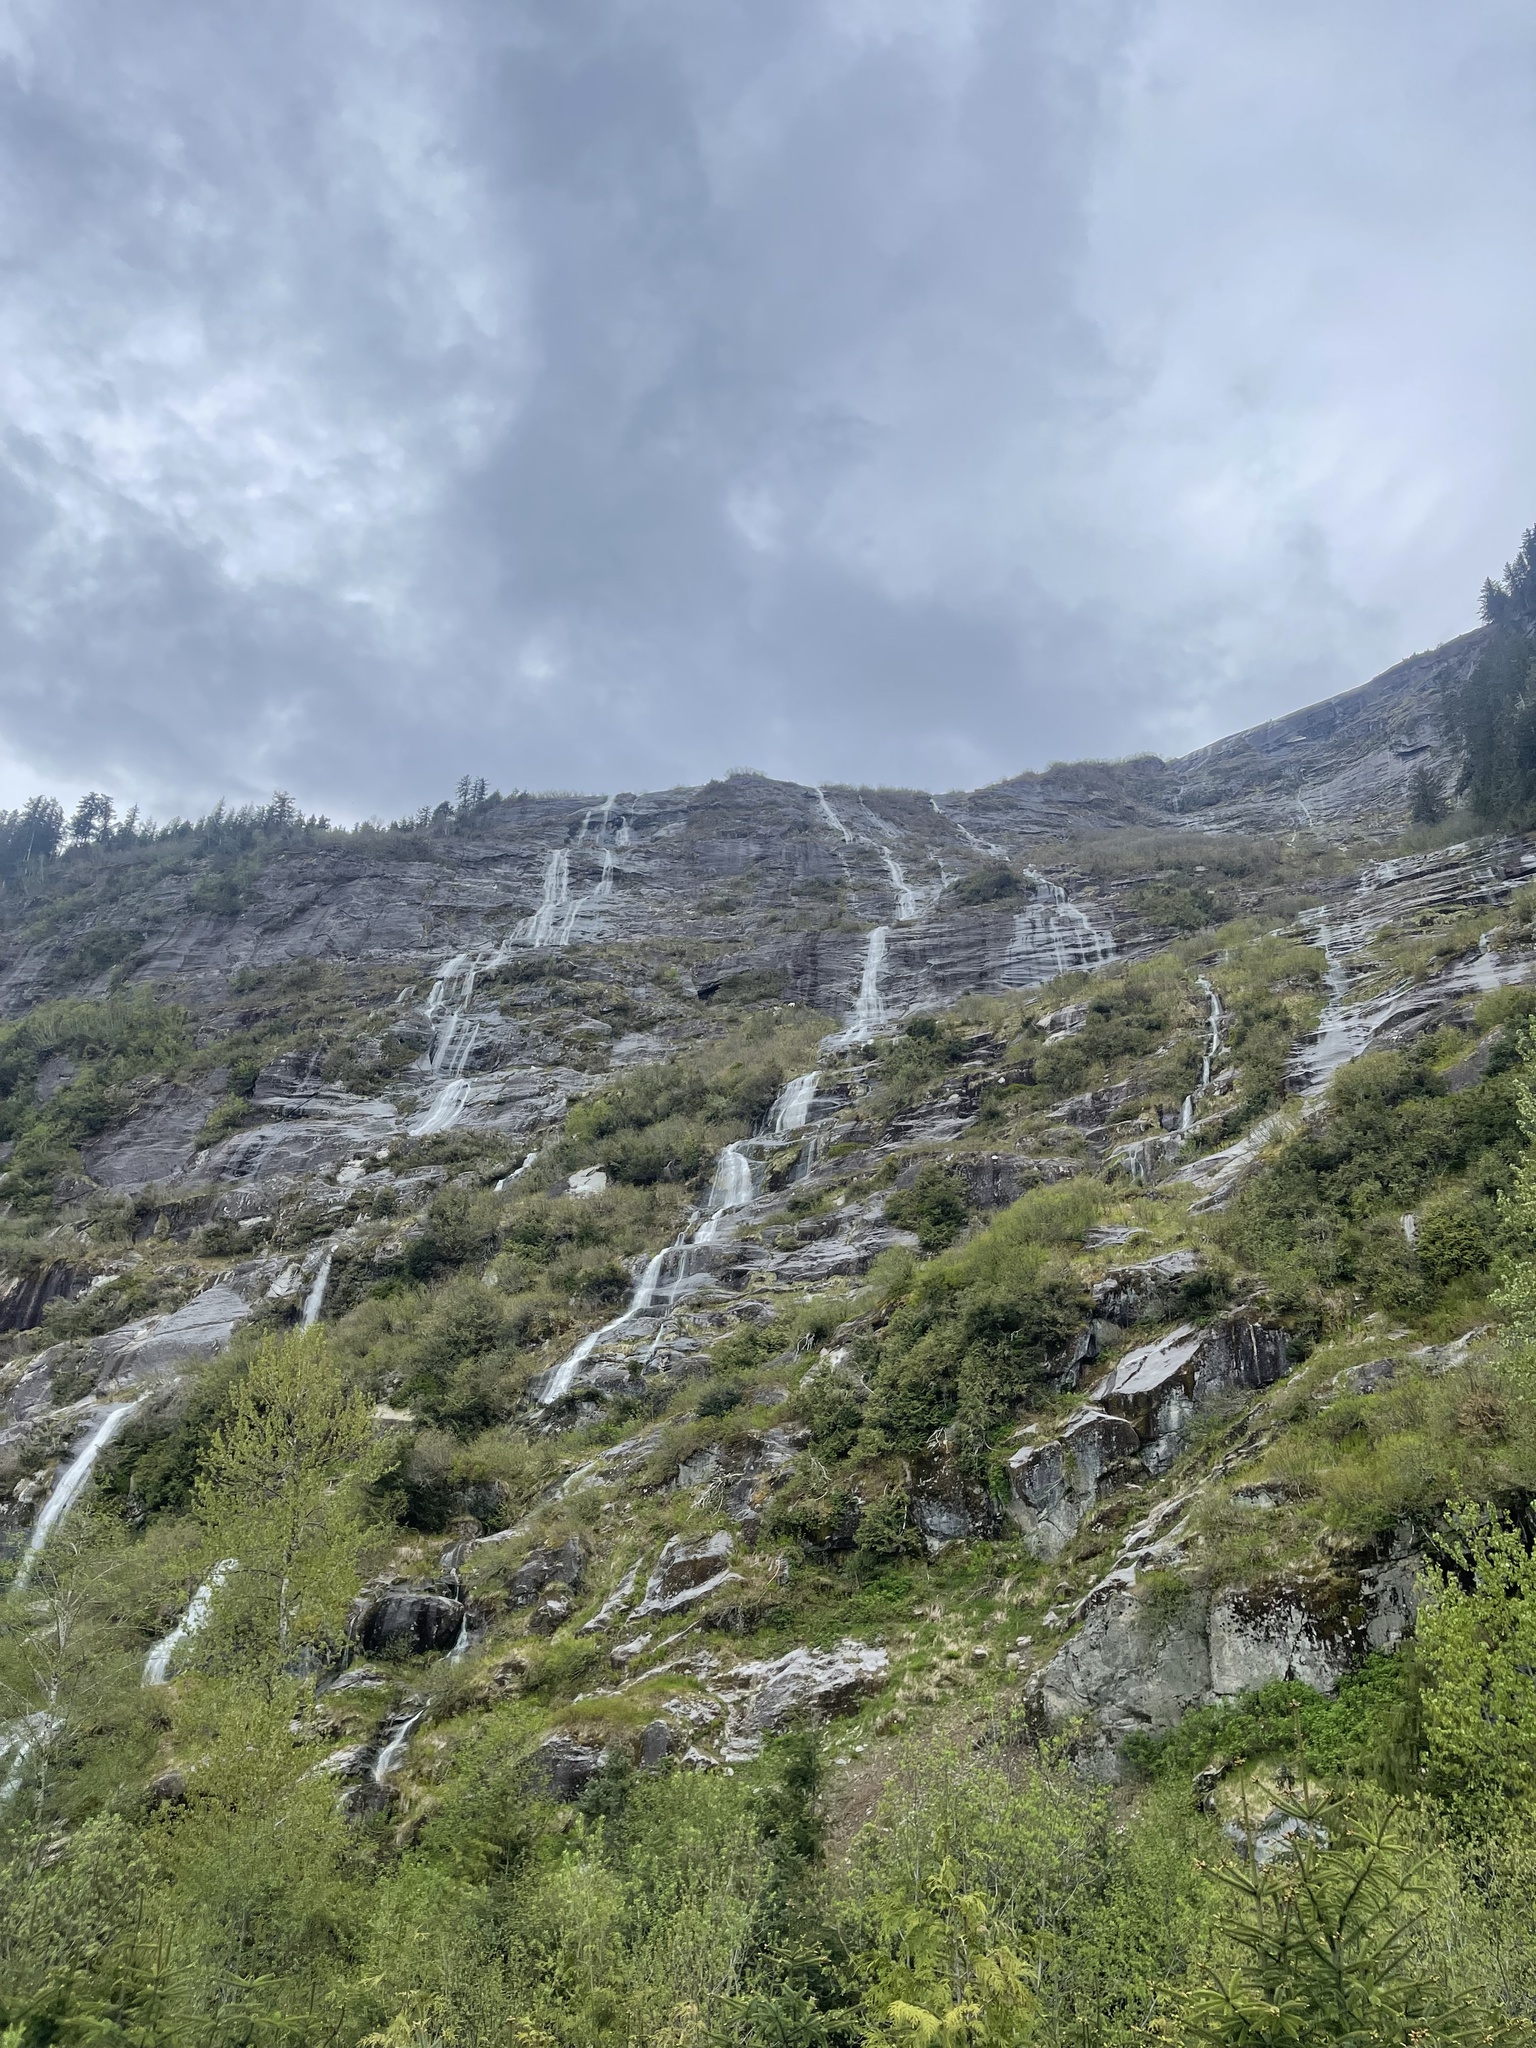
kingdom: Animalia
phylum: Chordata
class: Mammalia
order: Artiodactyla
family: Bovidae
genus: Oreamnos
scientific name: Oreamnos americanus
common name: Mountain goat
